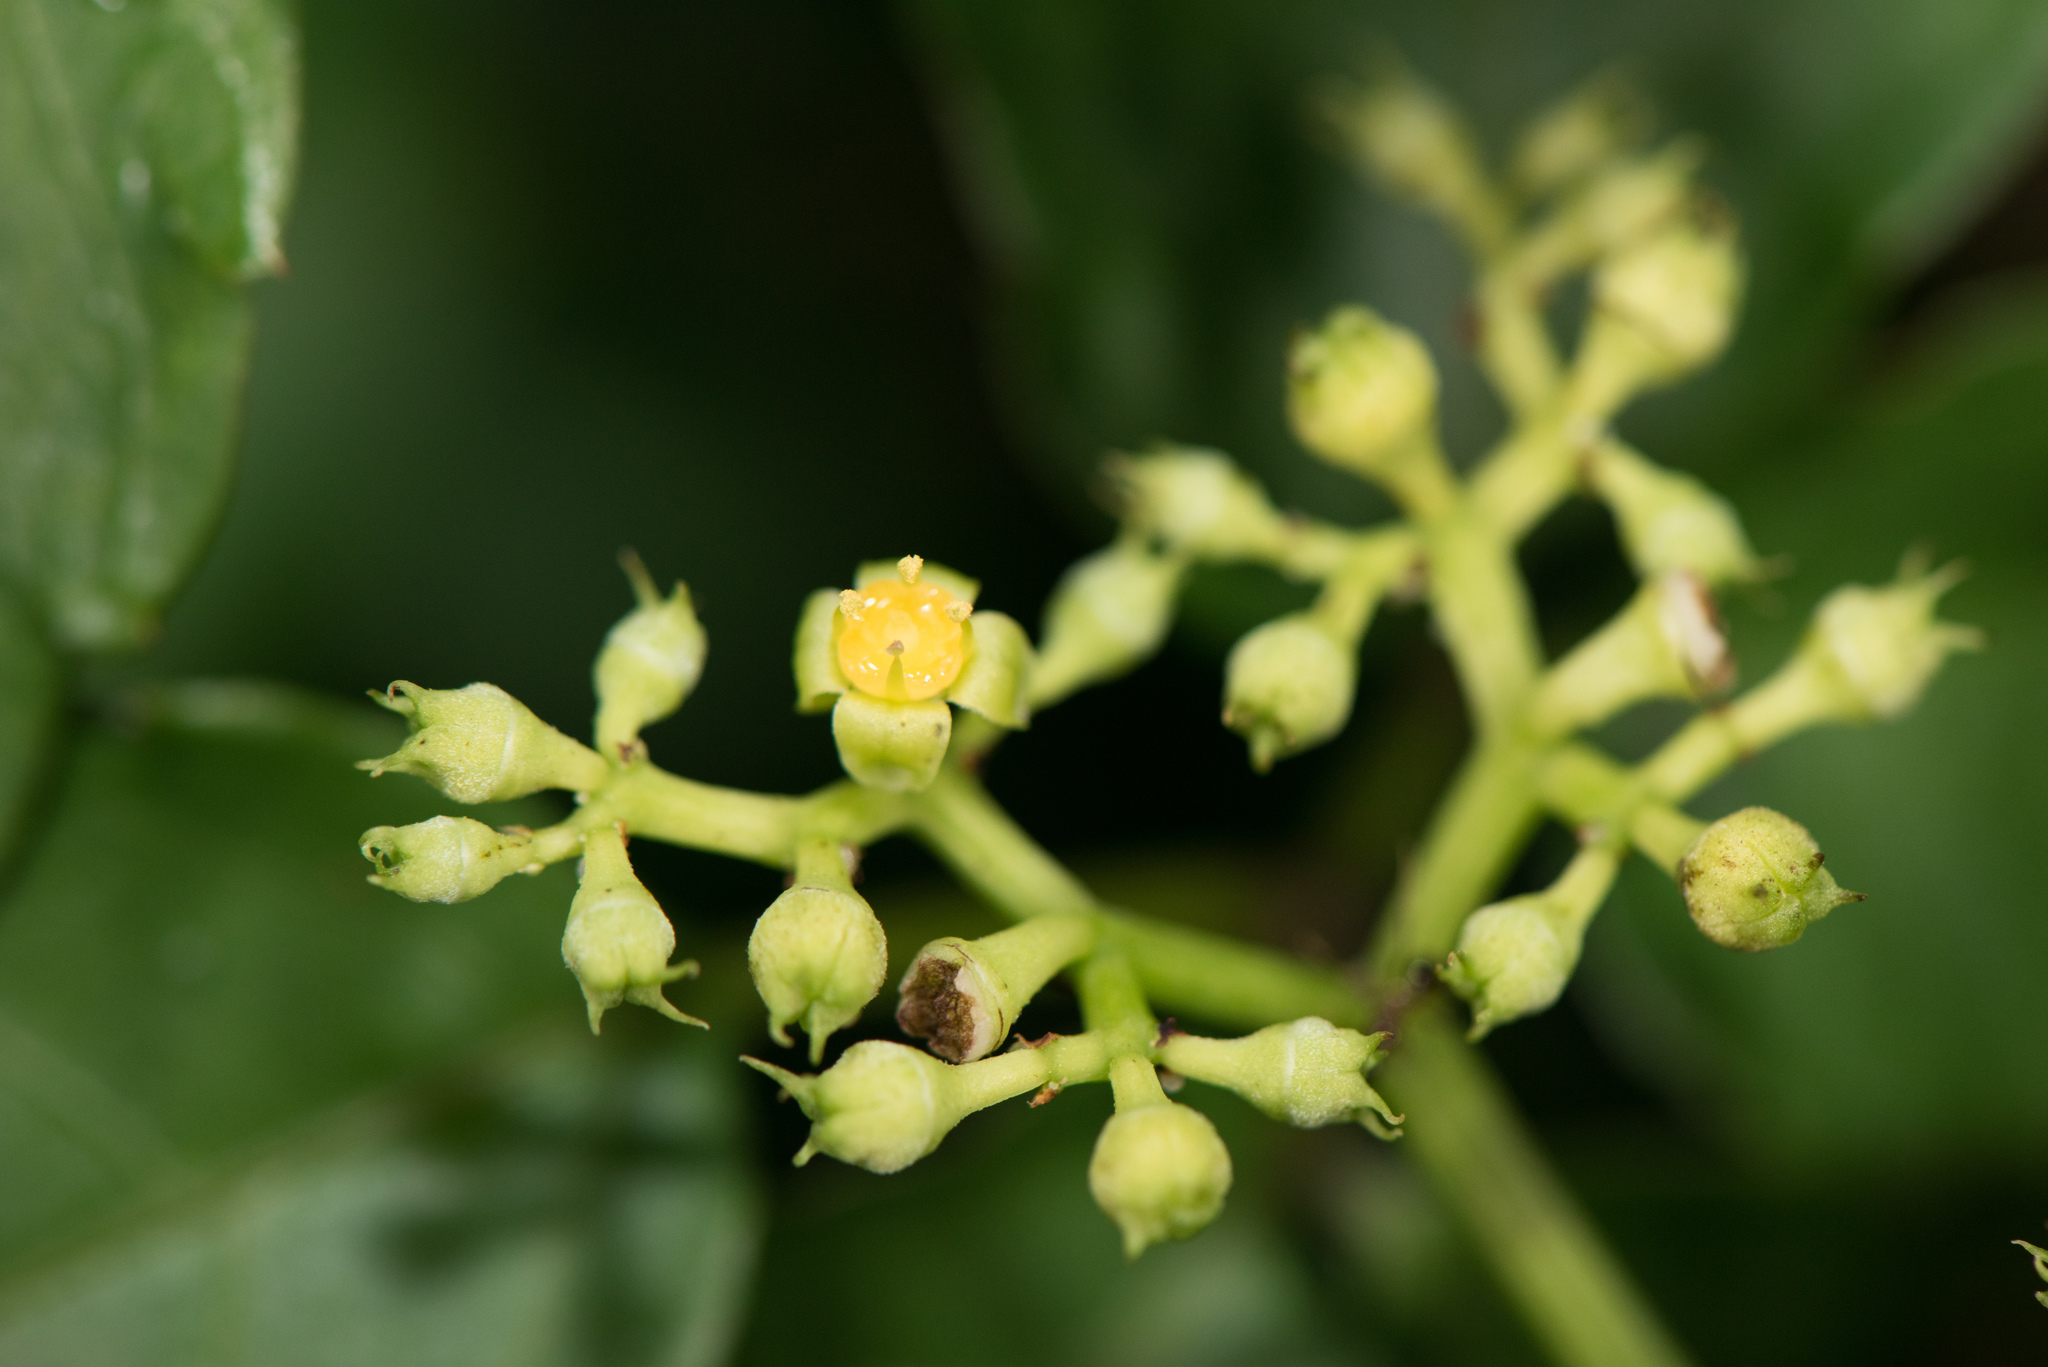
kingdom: Plantae
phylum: Tracheophyta
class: Magnoliopsida
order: Vitales
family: Vitaceae
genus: Causonis
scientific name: Causonis corniculata
